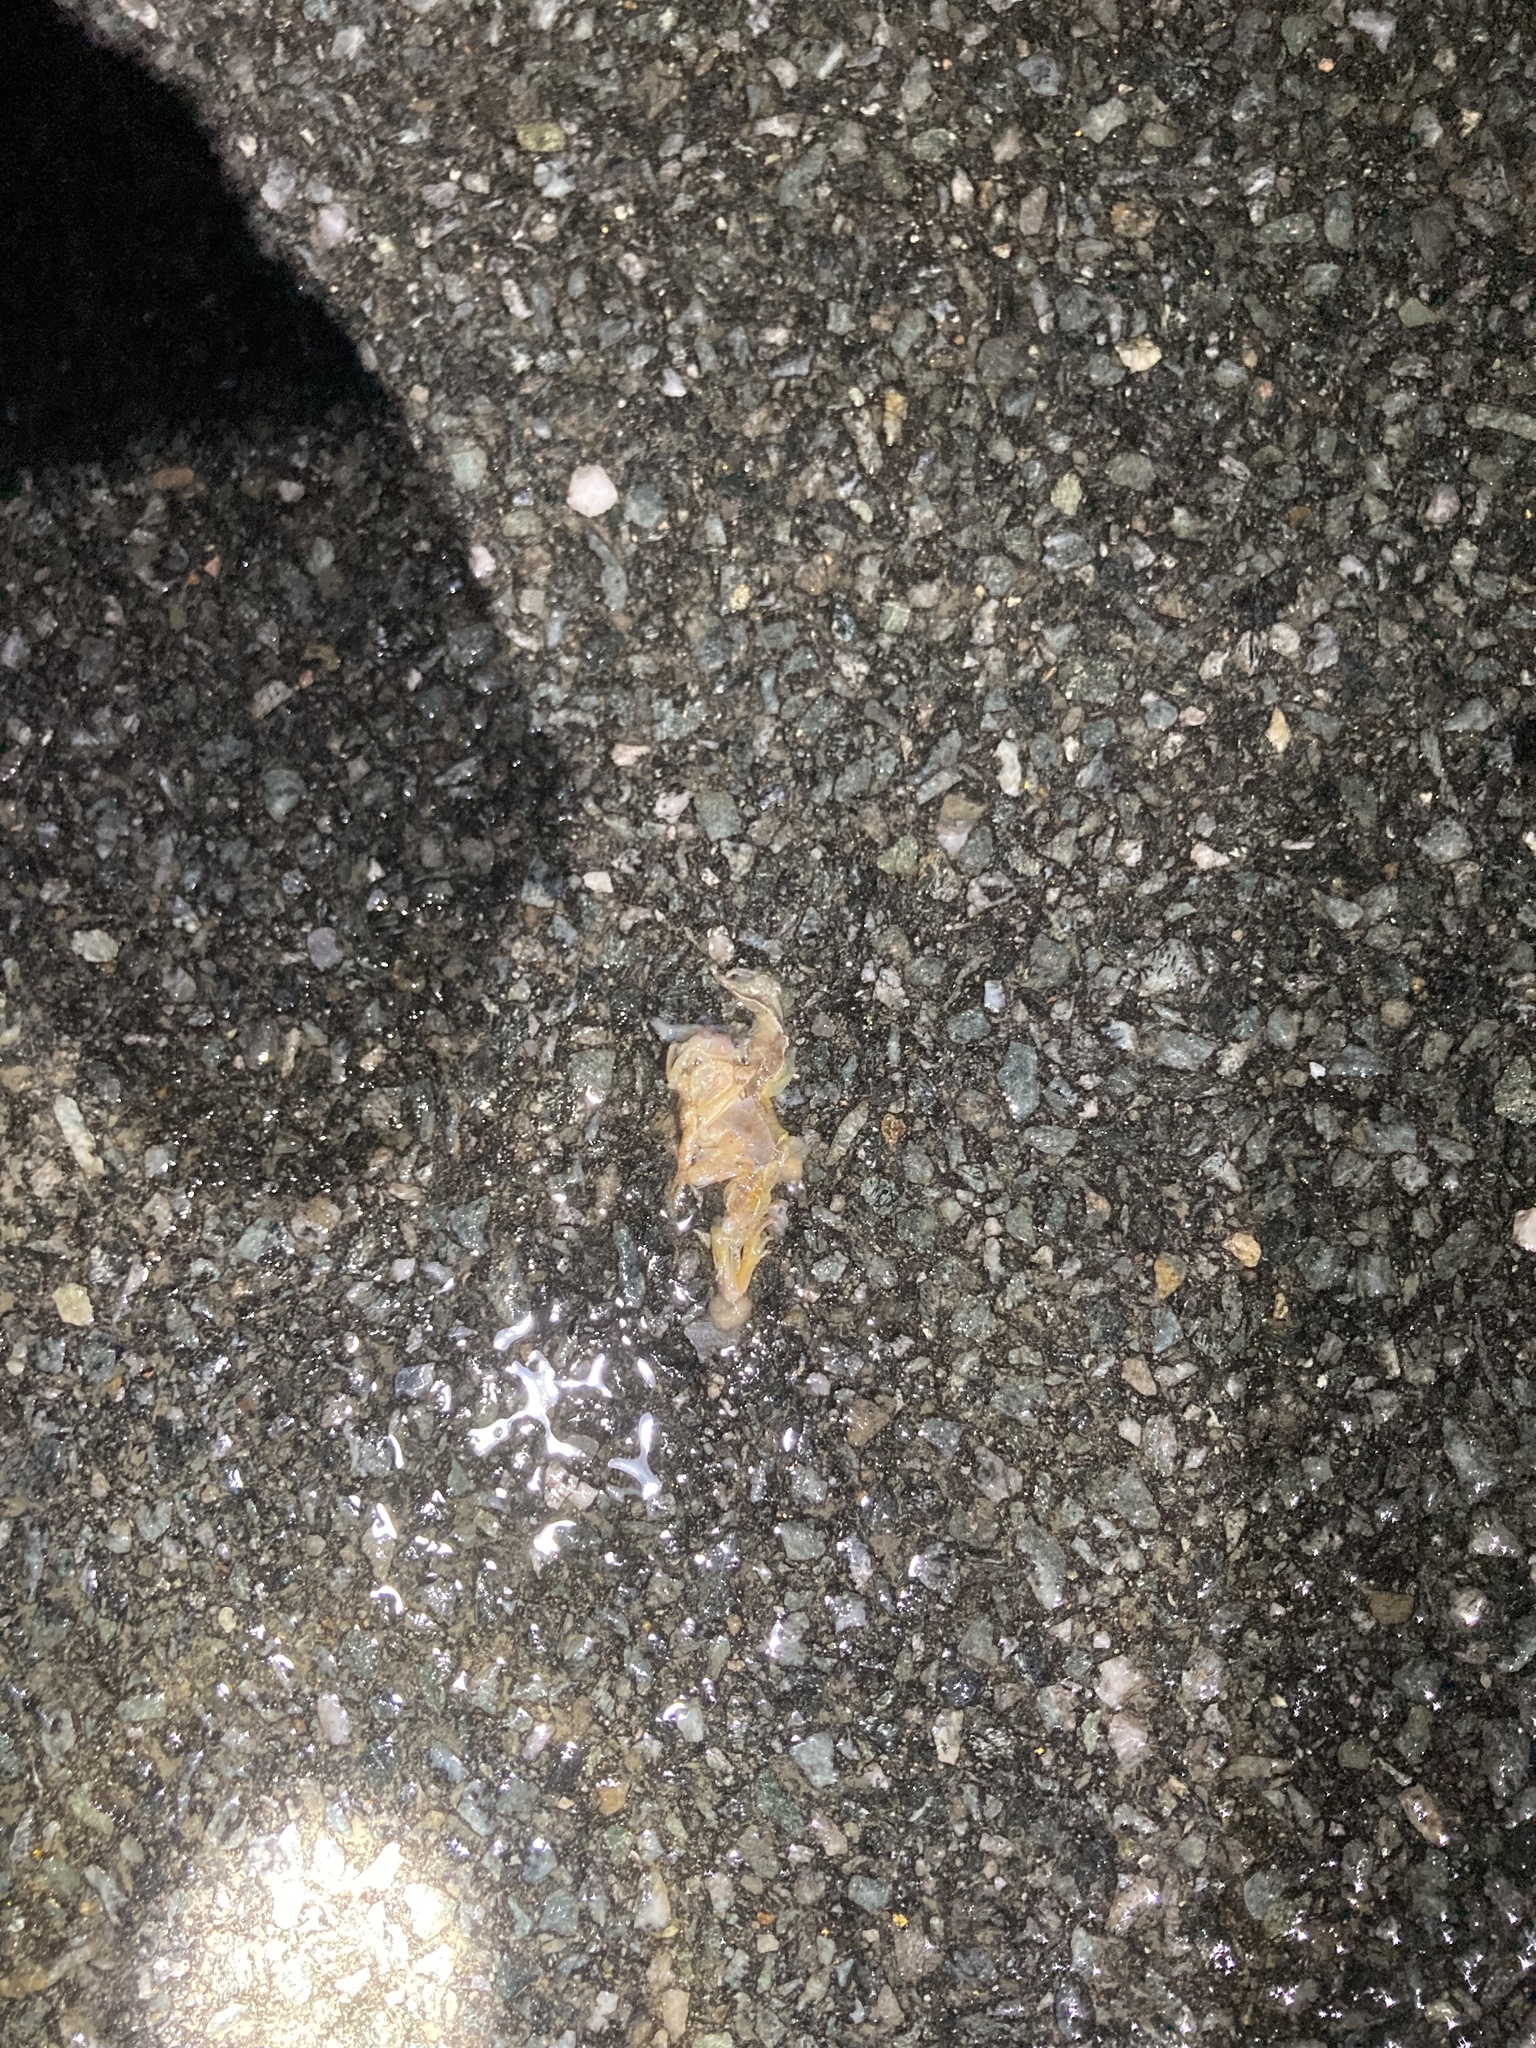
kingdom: Animalia
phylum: Chordata
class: Amphibia
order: Anura
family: Hylidae
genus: Pseudacris
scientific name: Pseudacris crucifer
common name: Spring peeper
